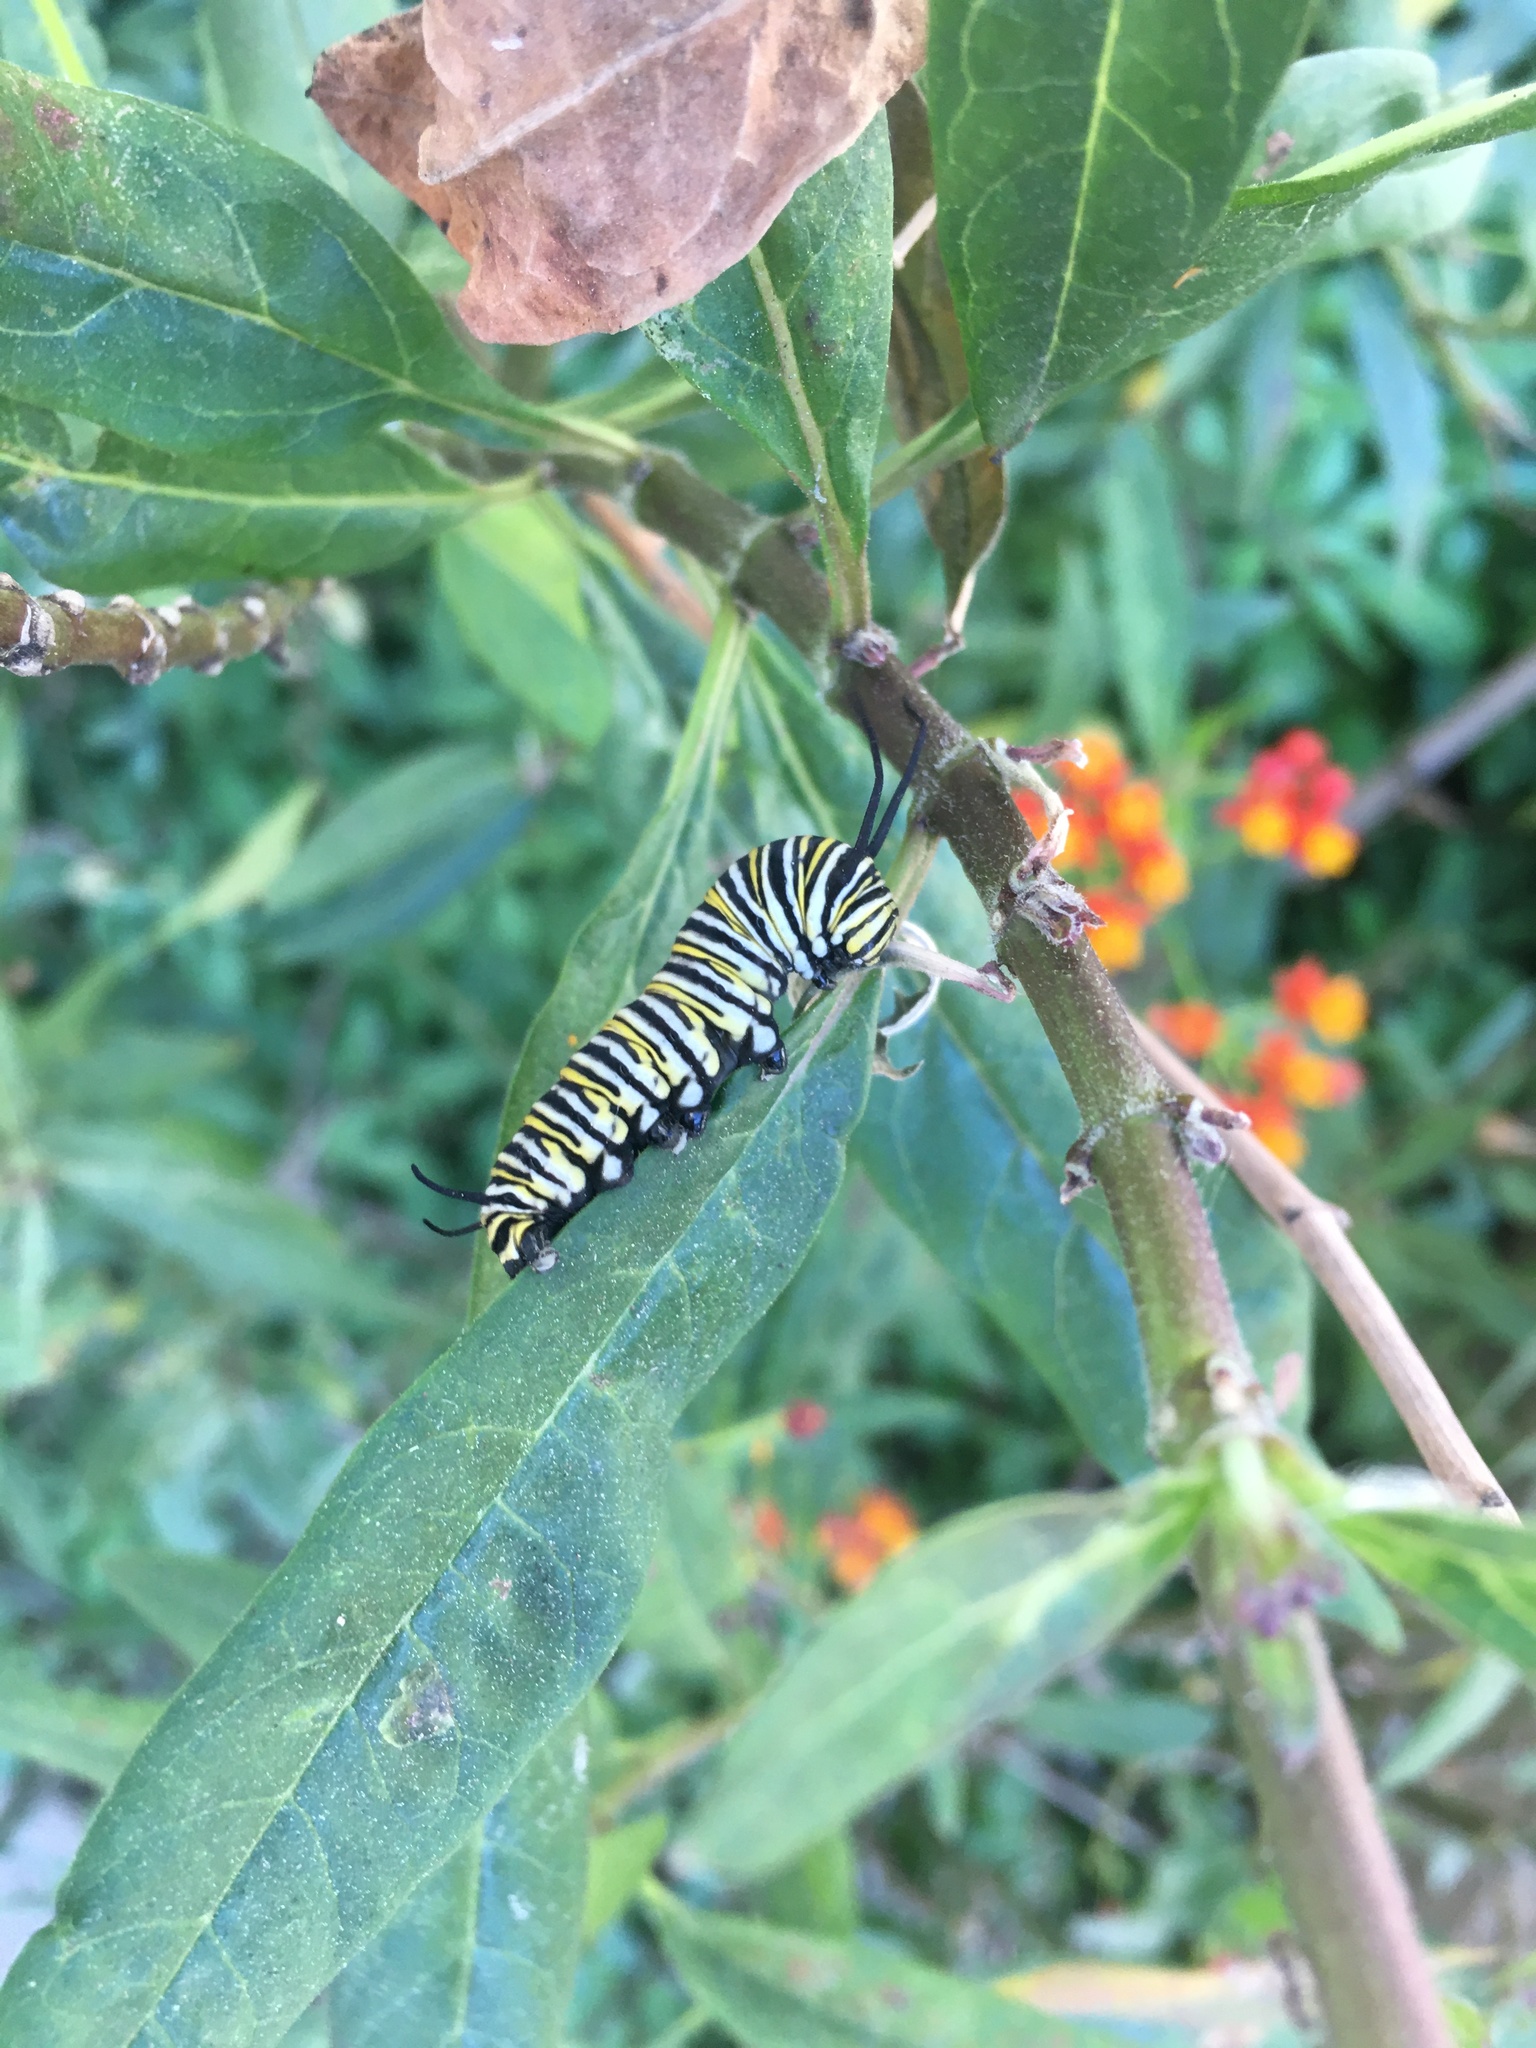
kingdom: Animalia
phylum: Arthropoda
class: Insecta
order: Lepidoptera
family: Nymphalidae
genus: Danaus
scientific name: Danaus plexippus
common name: Monarch
